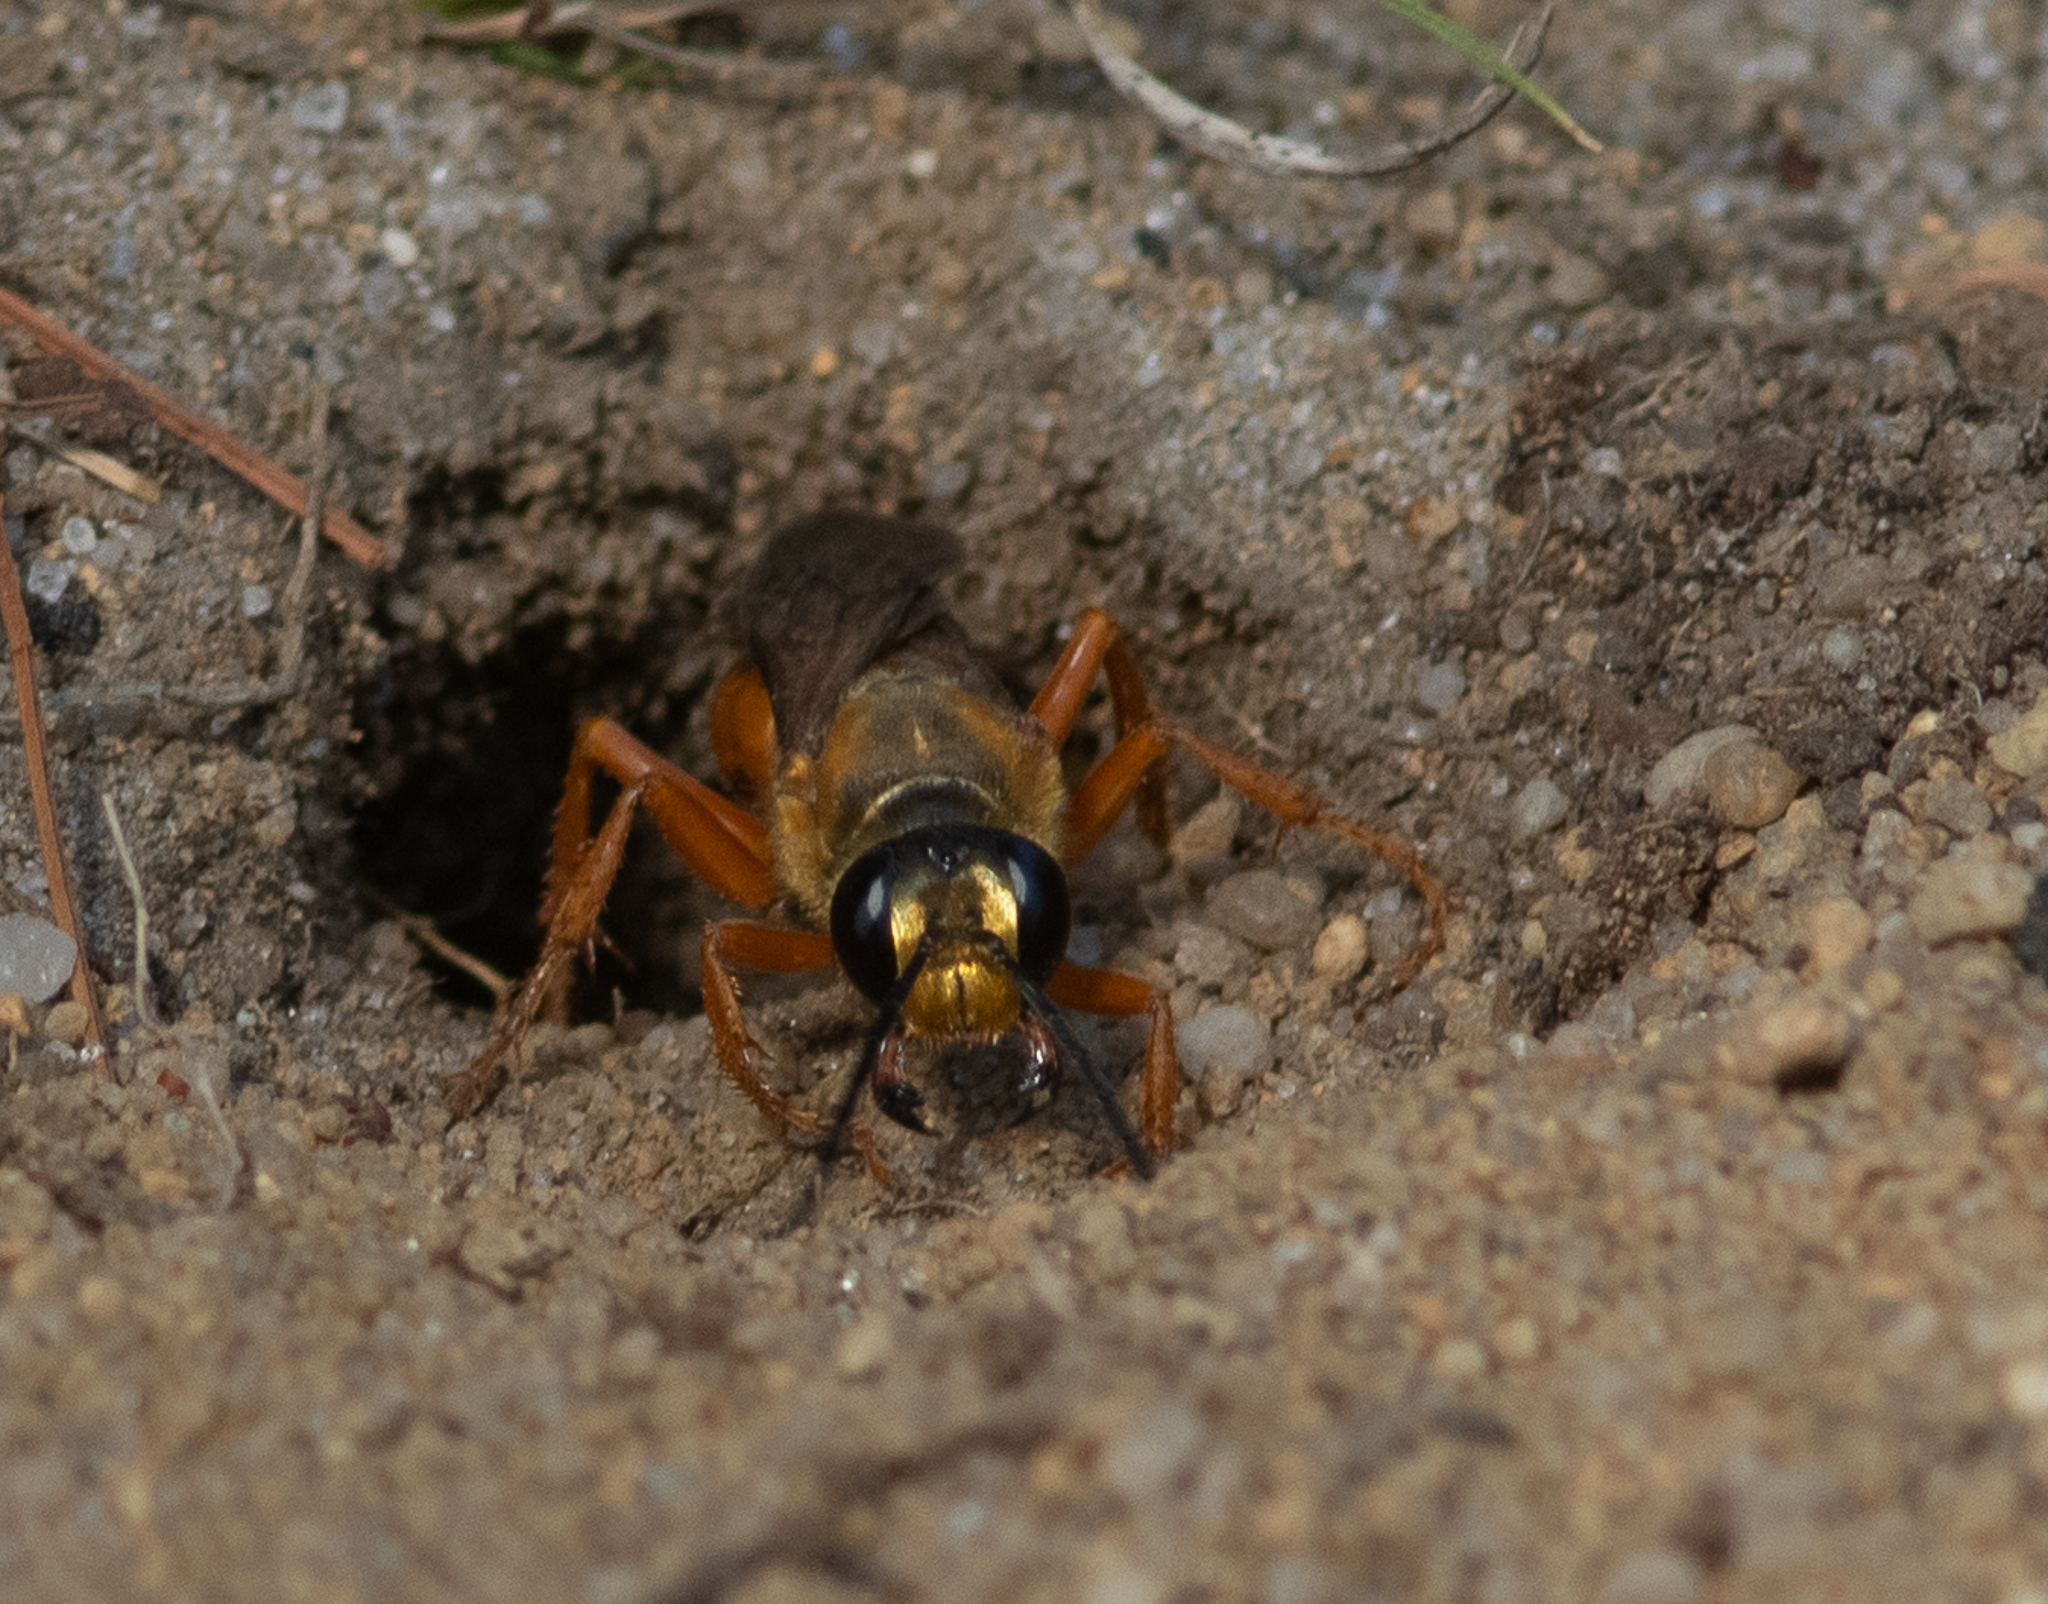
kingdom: Animalia
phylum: Arthropoda
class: Insecta
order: Hymenoptera
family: Sphecidae
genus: Sphex
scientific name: Sphex ichneumoneus
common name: Great golden digger wasp
